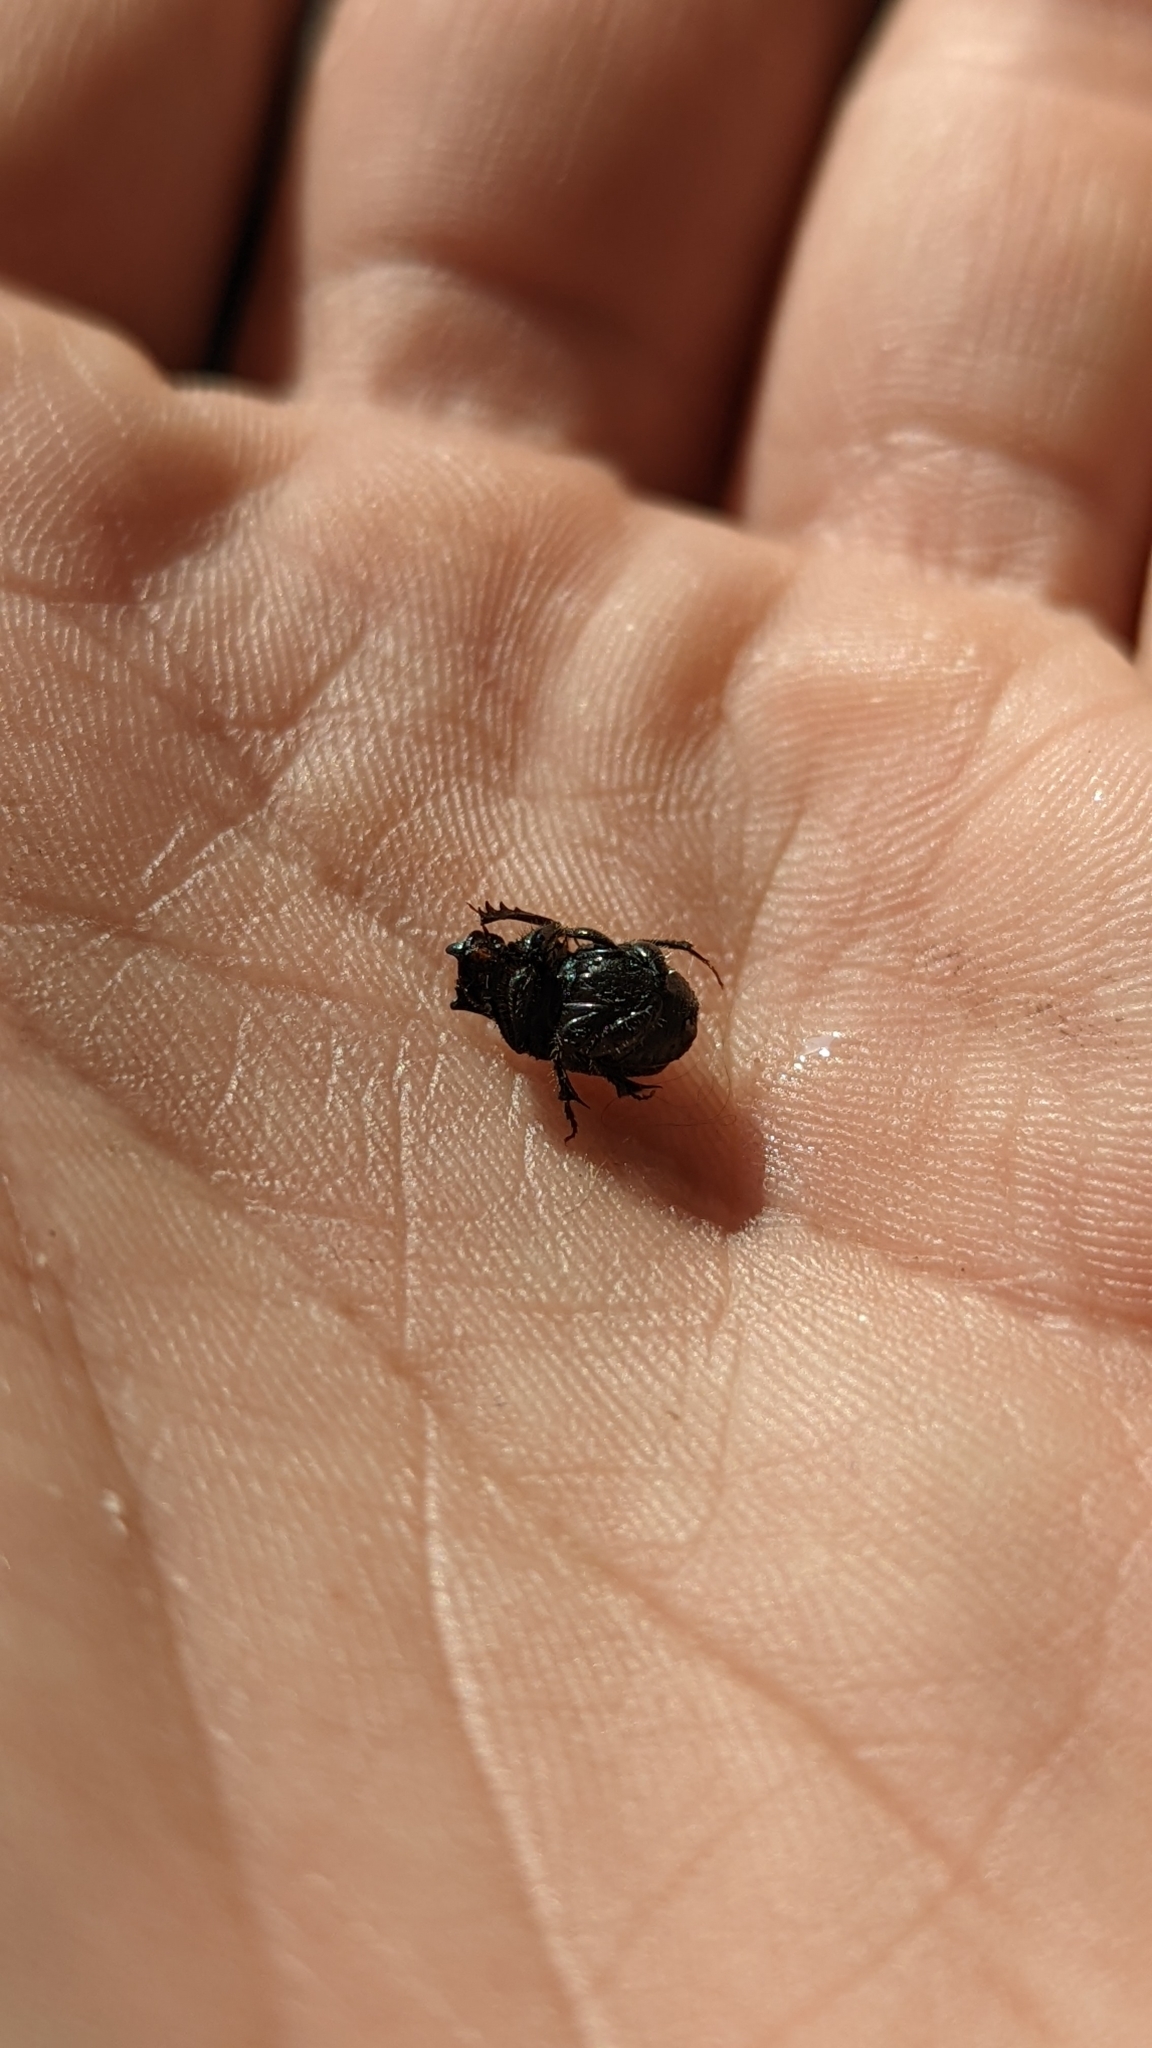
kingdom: Animalia
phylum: Arthropoda
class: Insecta
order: Coleoptera
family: Scarabaeidae
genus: Onthophagus
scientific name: Onthophagus hecate
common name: Scooped scarab
